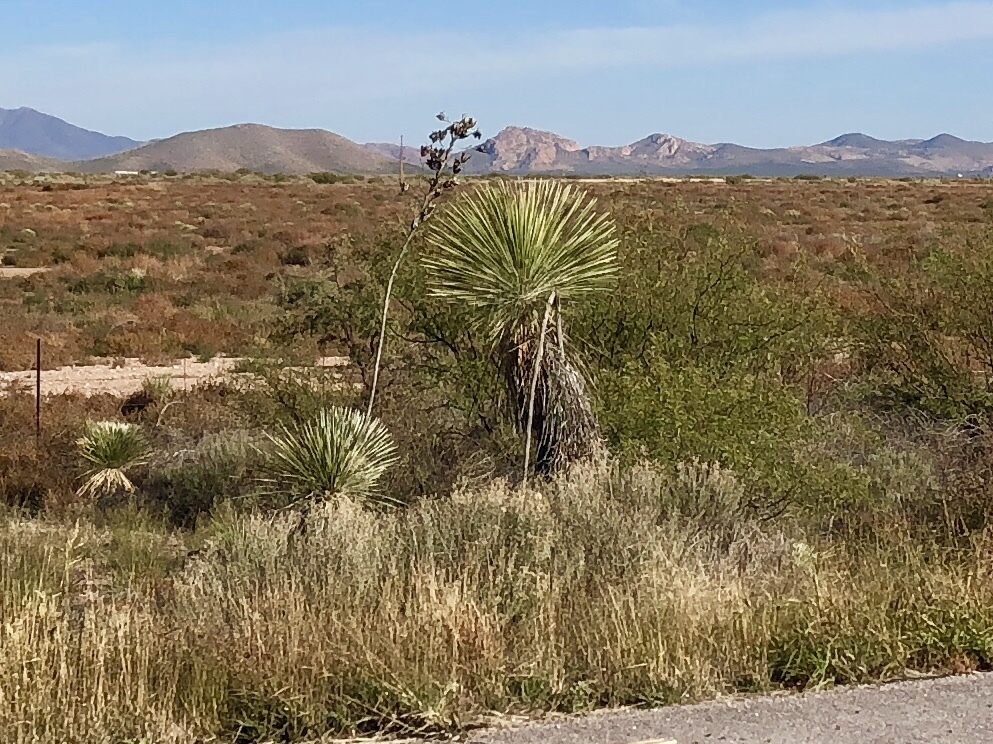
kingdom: Plantae
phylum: Tracheophyta
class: Liliopsida
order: Asparagales
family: Asparagaceae
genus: Yucca
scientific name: Yucca elata
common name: Palmella
